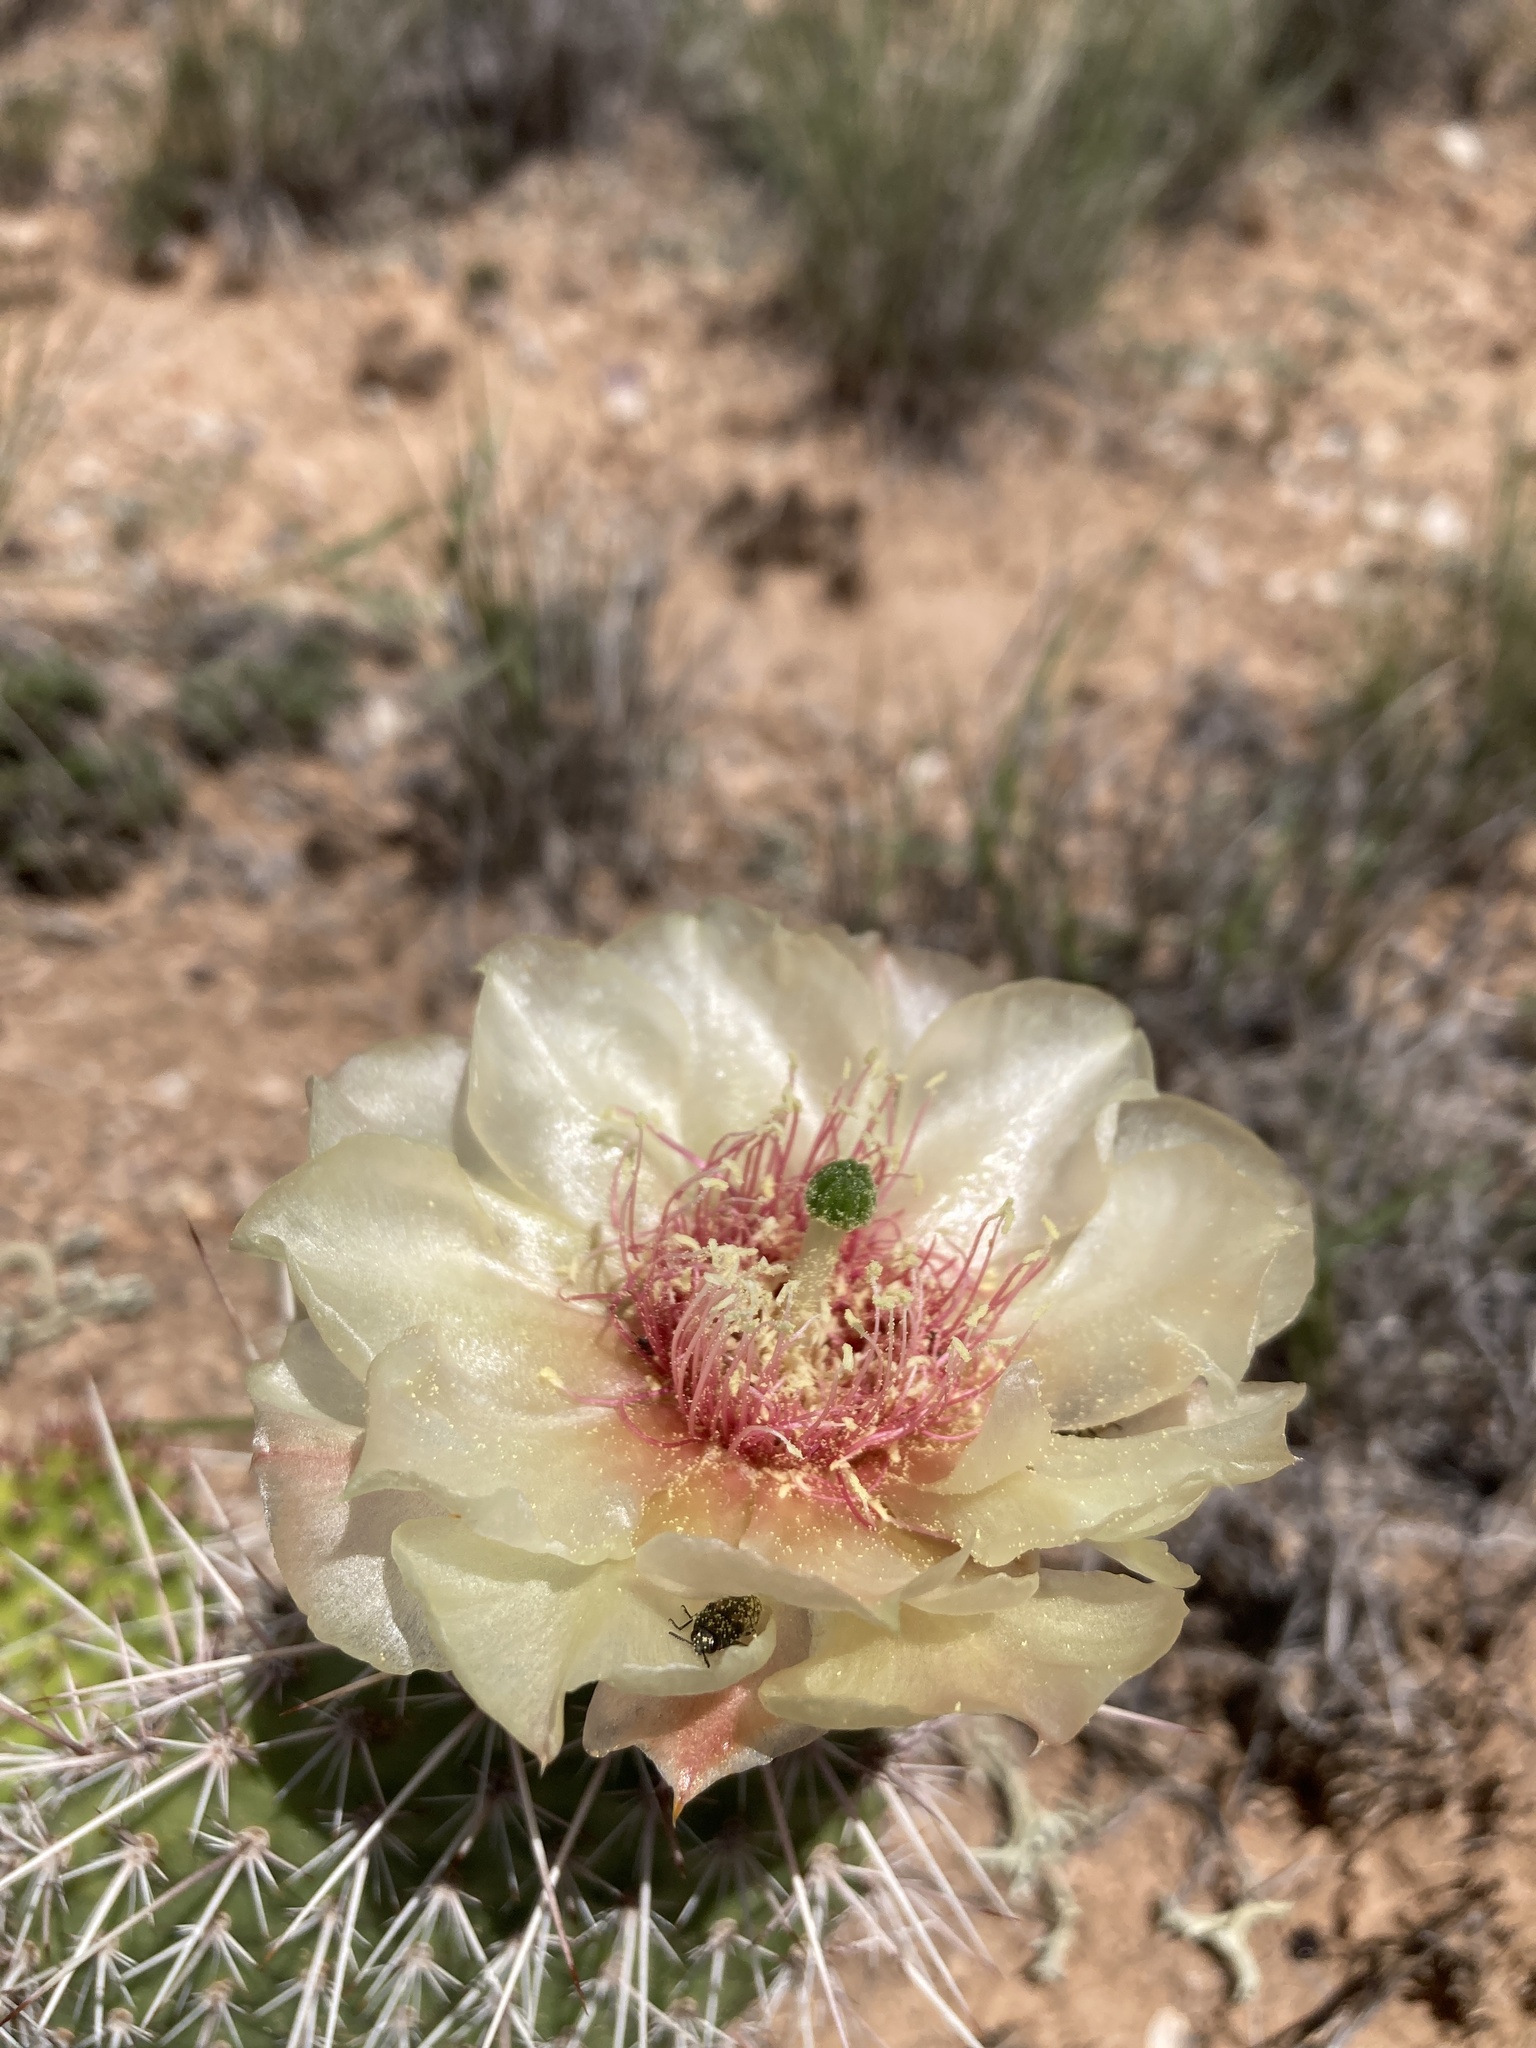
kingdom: Plantae
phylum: Tracheophyta
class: Magnoliopsida
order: Caryophyllales
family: Cactaceae
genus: Opuntia
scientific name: Opuntia polyacantha
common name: Plains prickly-pear
